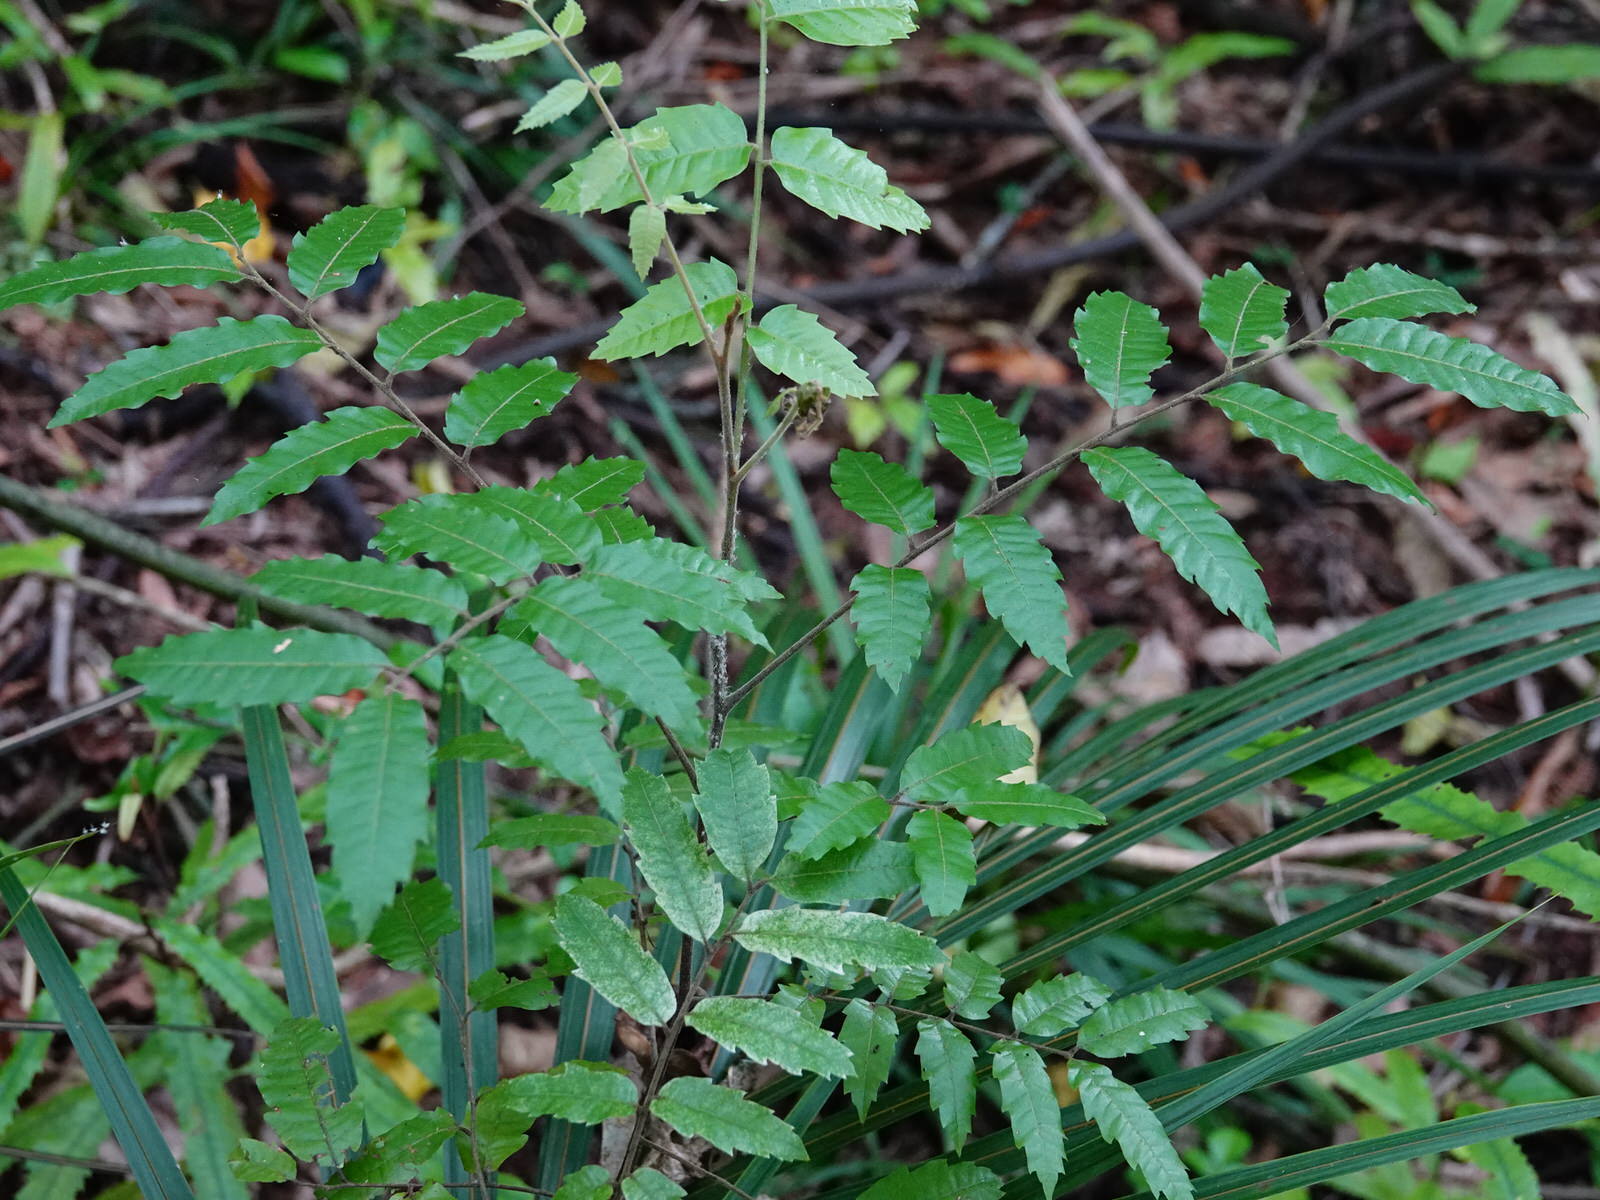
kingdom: Plantae
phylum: Tracheophyta
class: Magnoliopsida
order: Sapindales
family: Sapindaceae
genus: Alectryon
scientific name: Alectryon excelsus
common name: Three kings titoki
